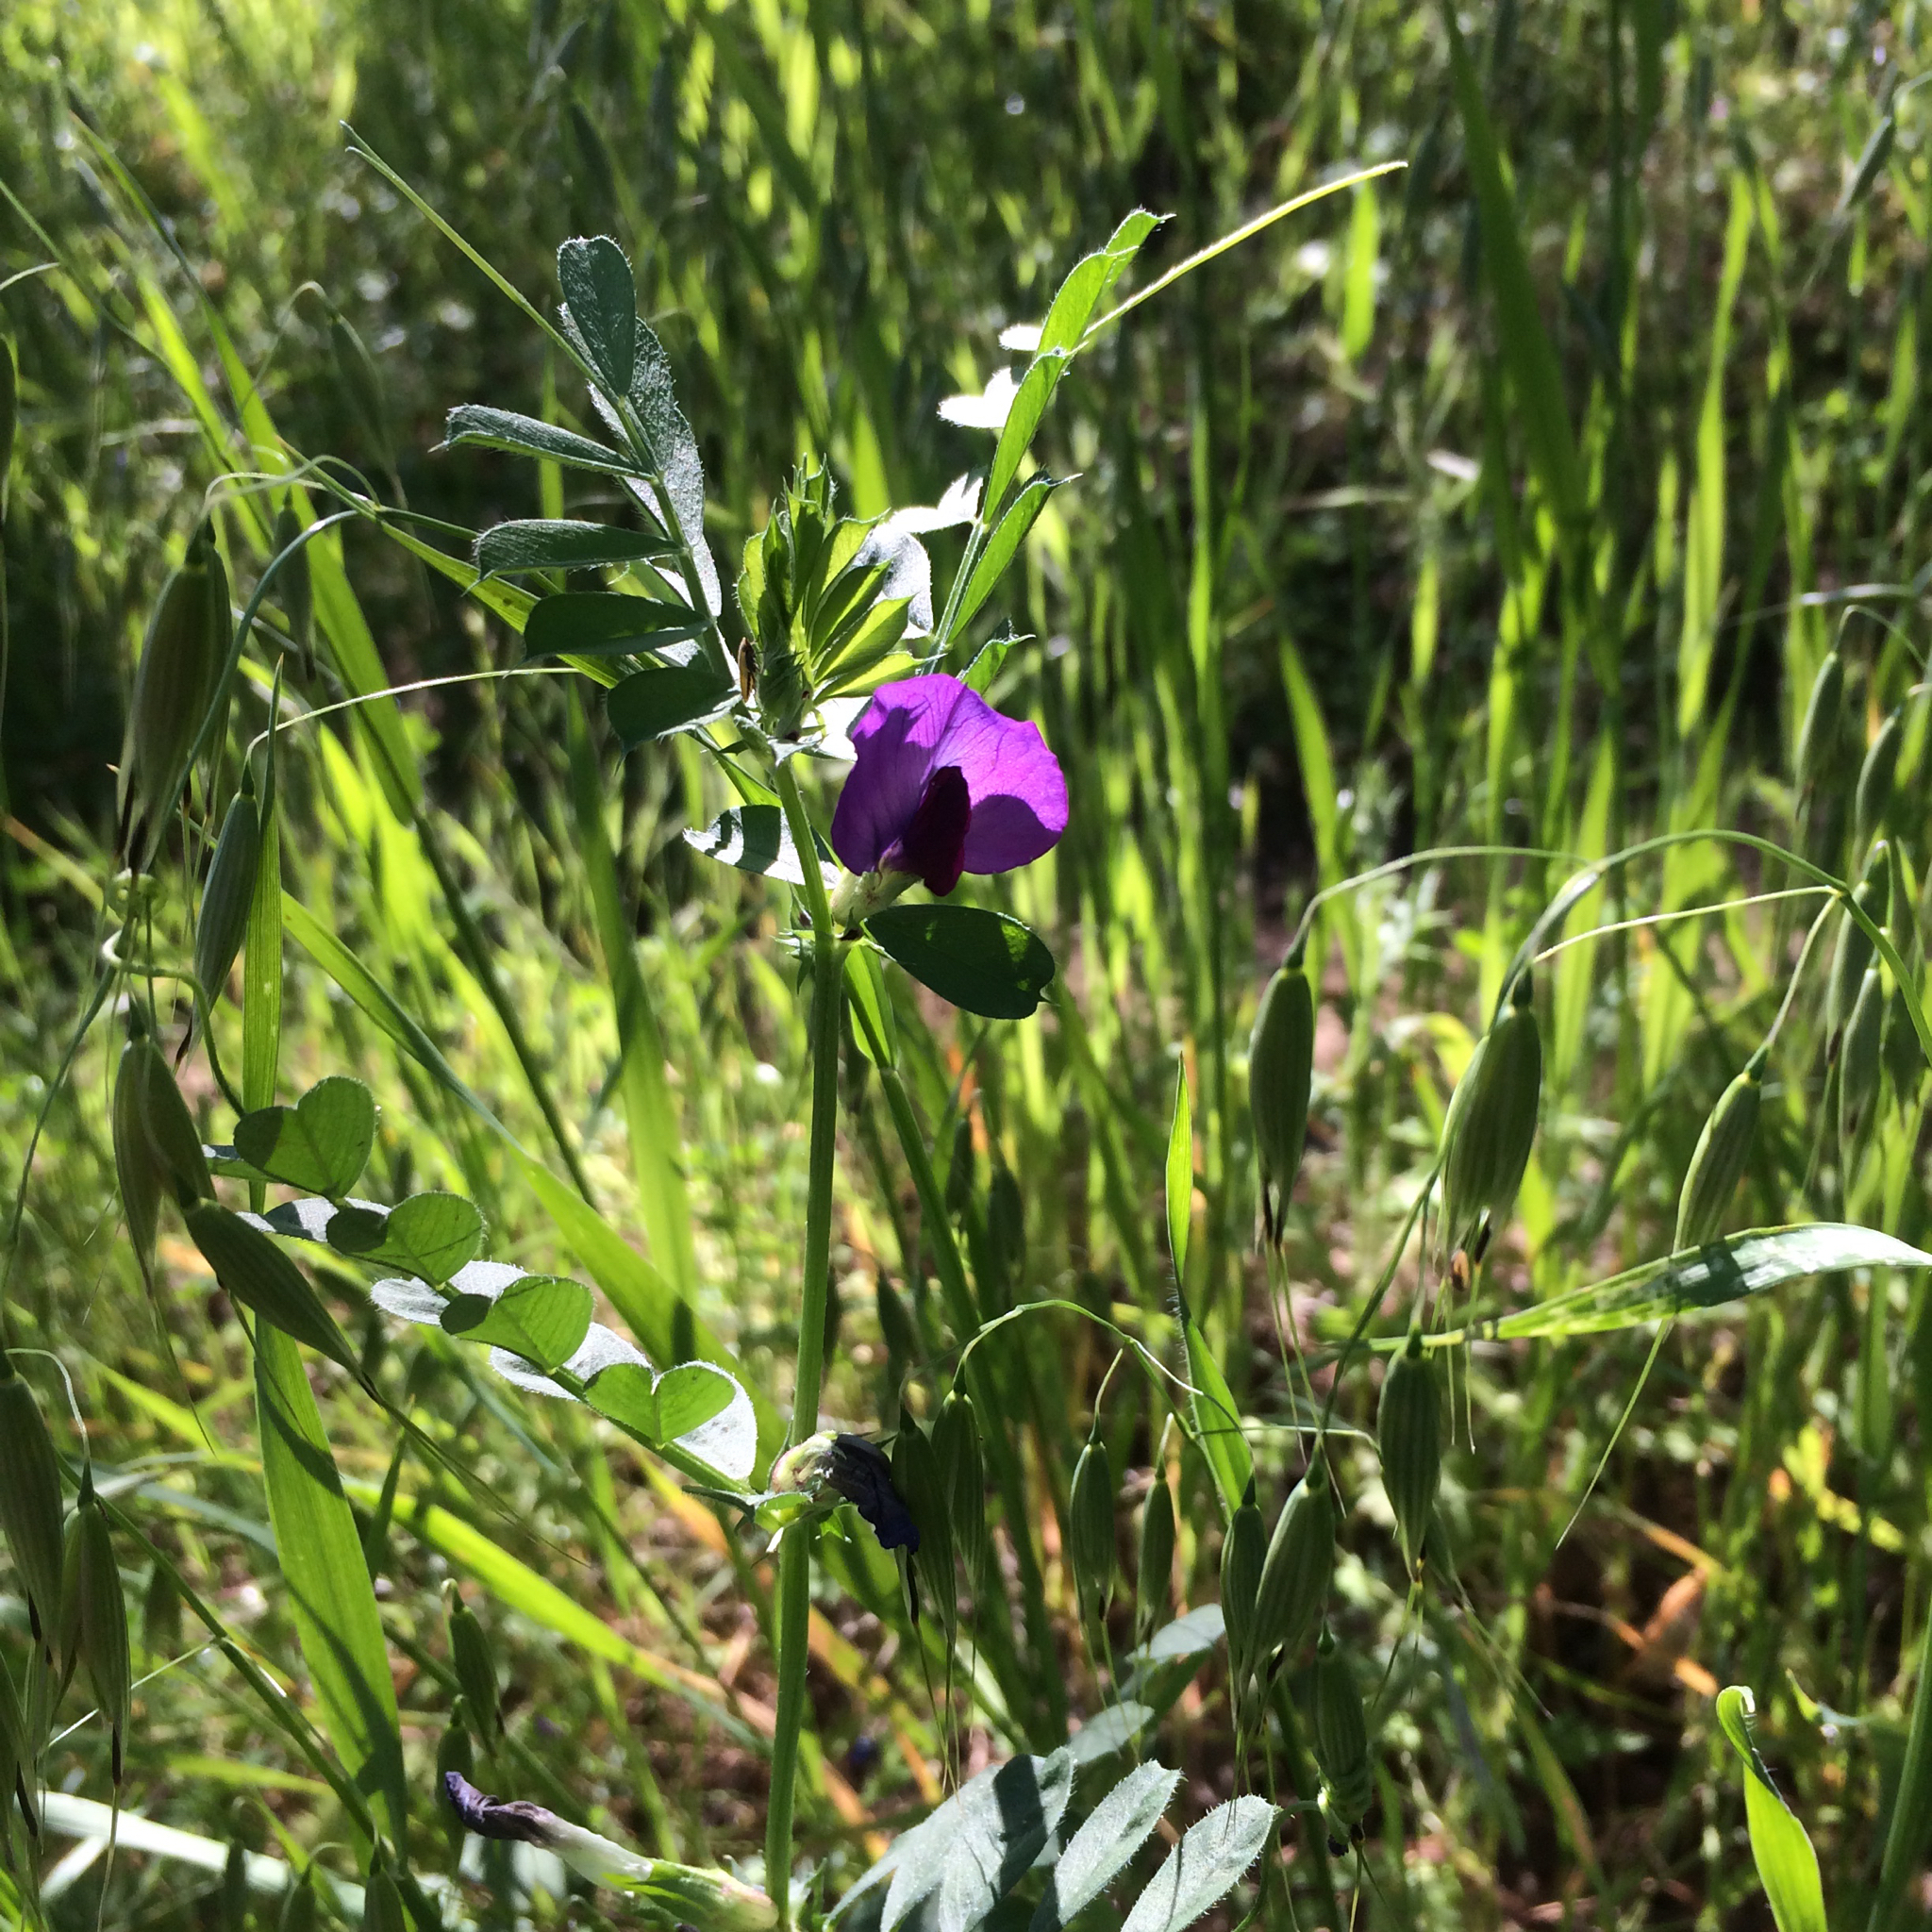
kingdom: Plantae
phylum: Tracheophyta
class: Magnoliopsida
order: Fabales
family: Fabaceae
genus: Vicia
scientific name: Vicia sativa
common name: Garden vetch
